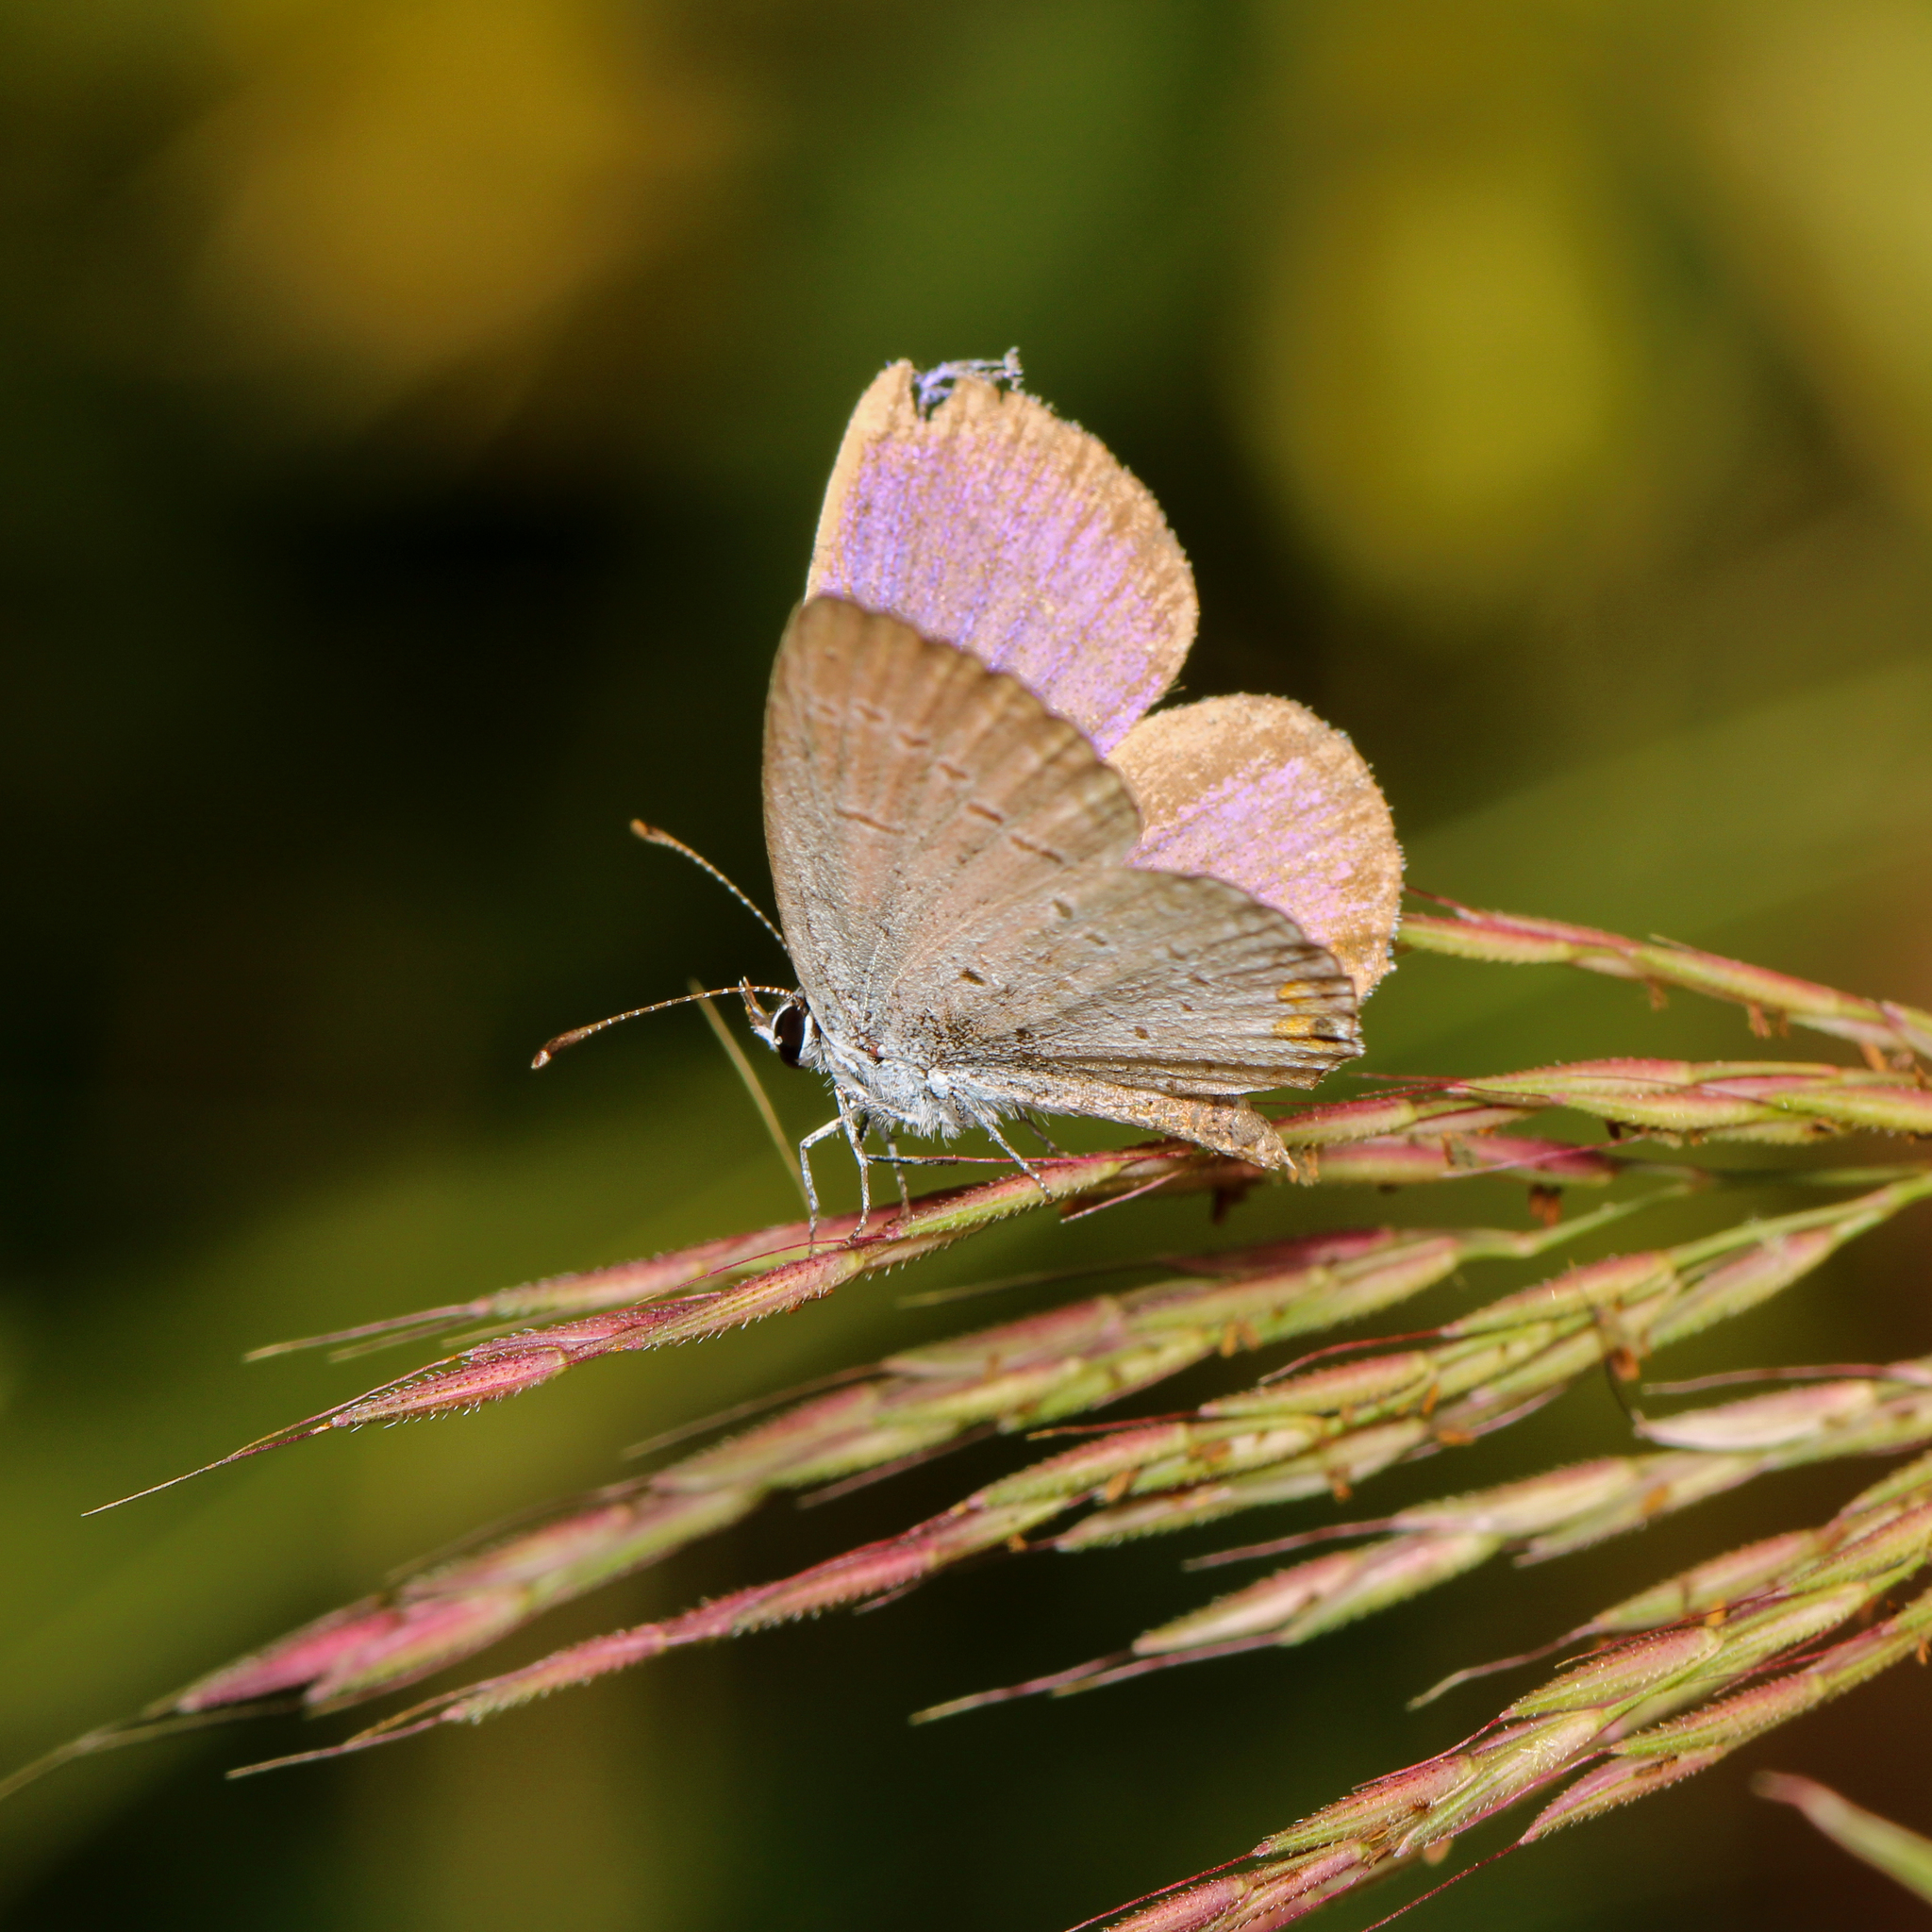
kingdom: Animalia
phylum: Arthropoda
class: Insecta
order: Lepidoptera
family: Lycaenidae
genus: Elkalyce
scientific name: Elkalyce comyntas
